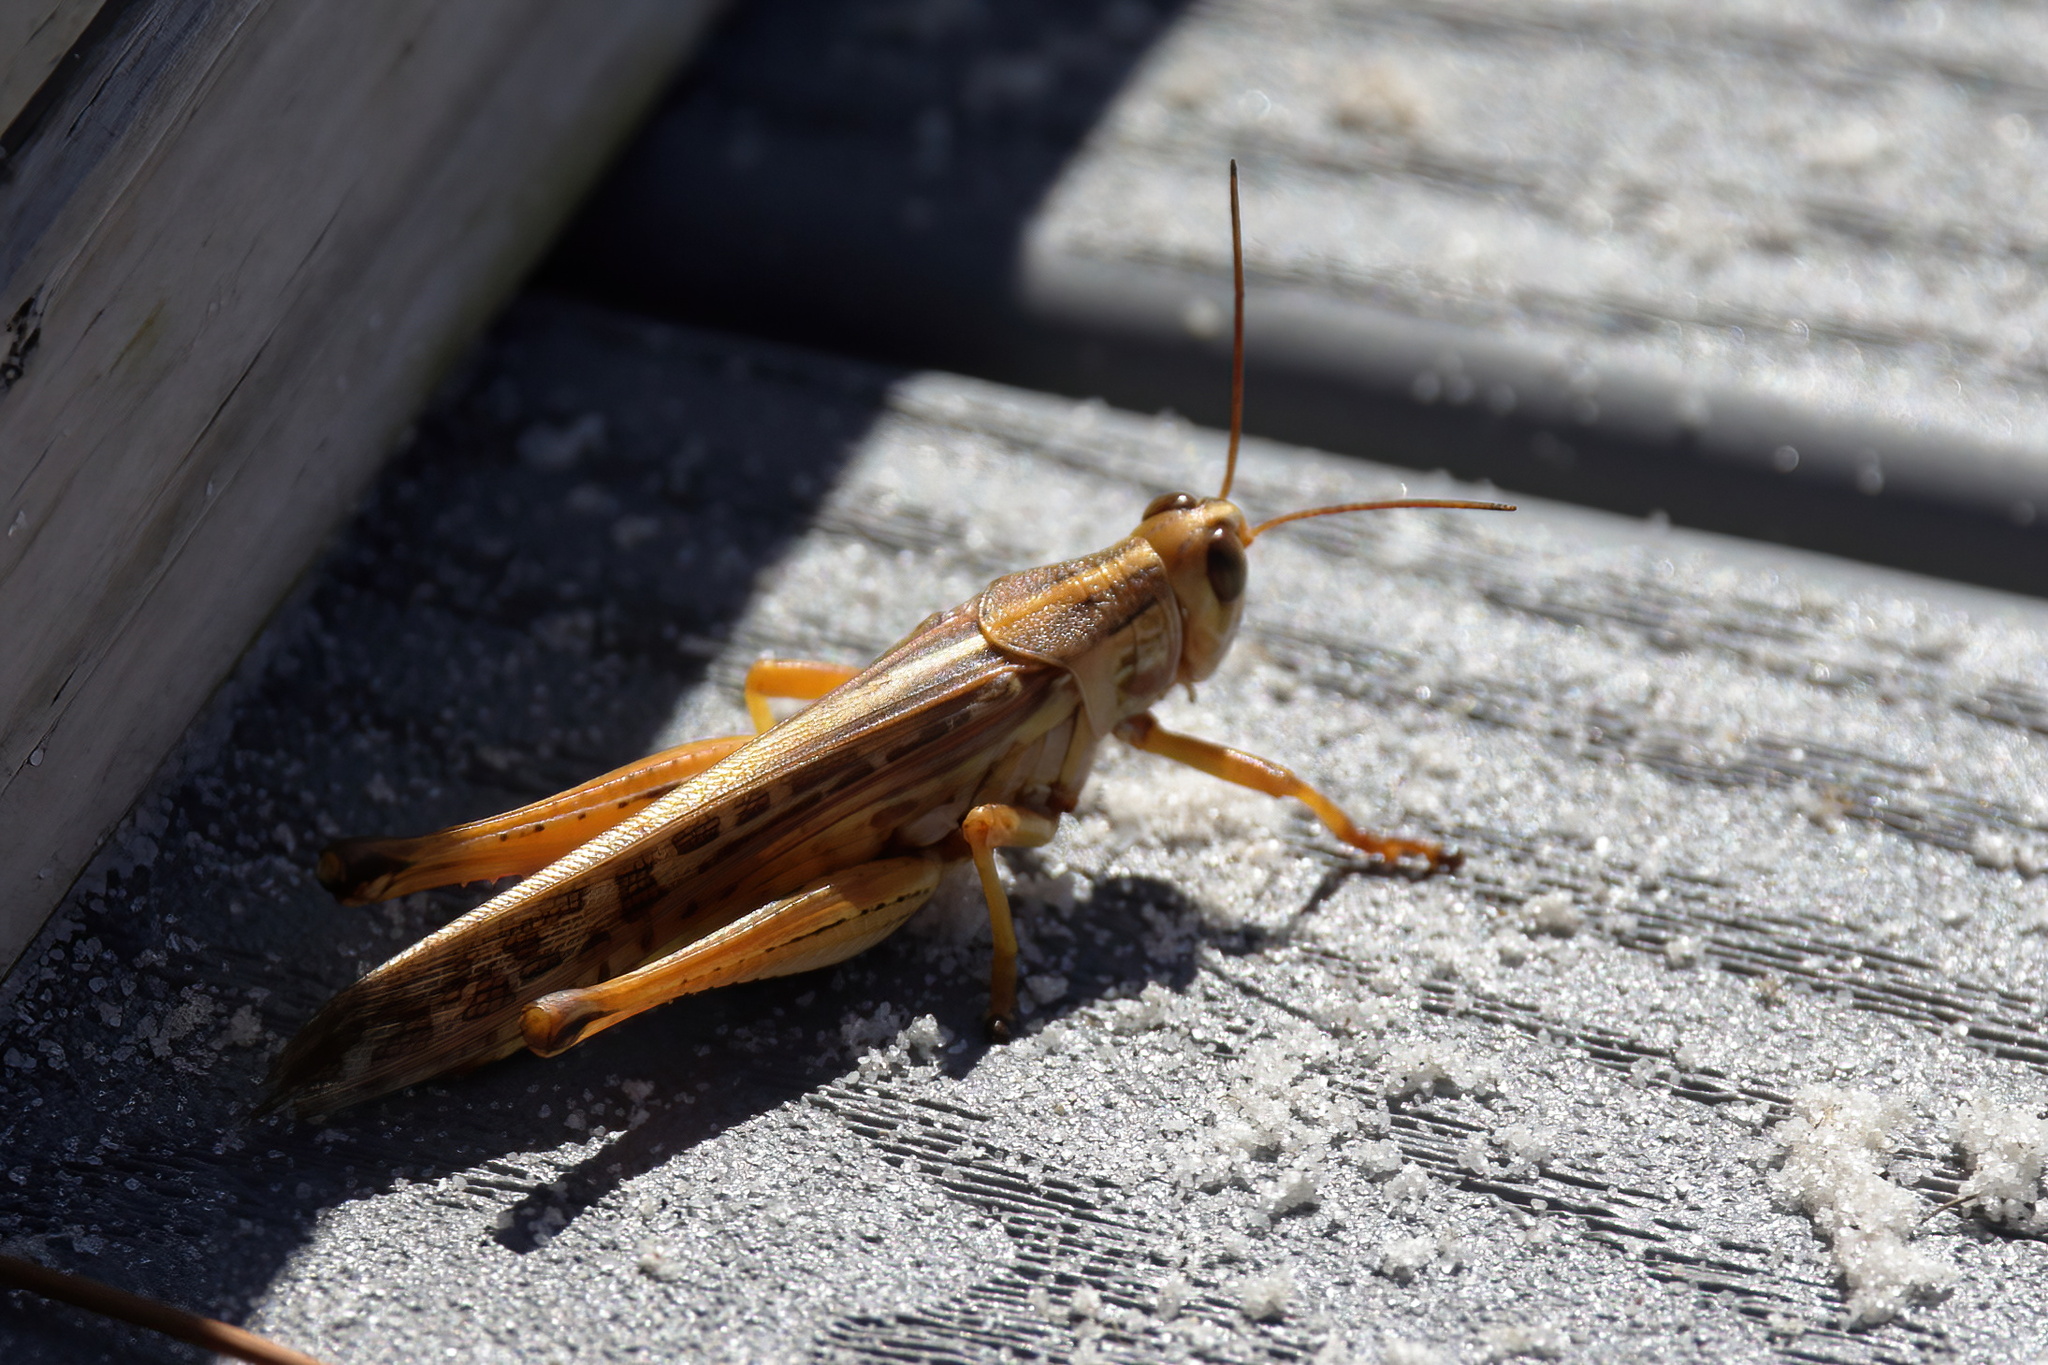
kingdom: Animalia
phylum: Arthropoda
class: Insecta
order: Orthoptera
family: Acrididae
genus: Schistocerca
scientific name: Schistocerca americana
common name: American bird locust
